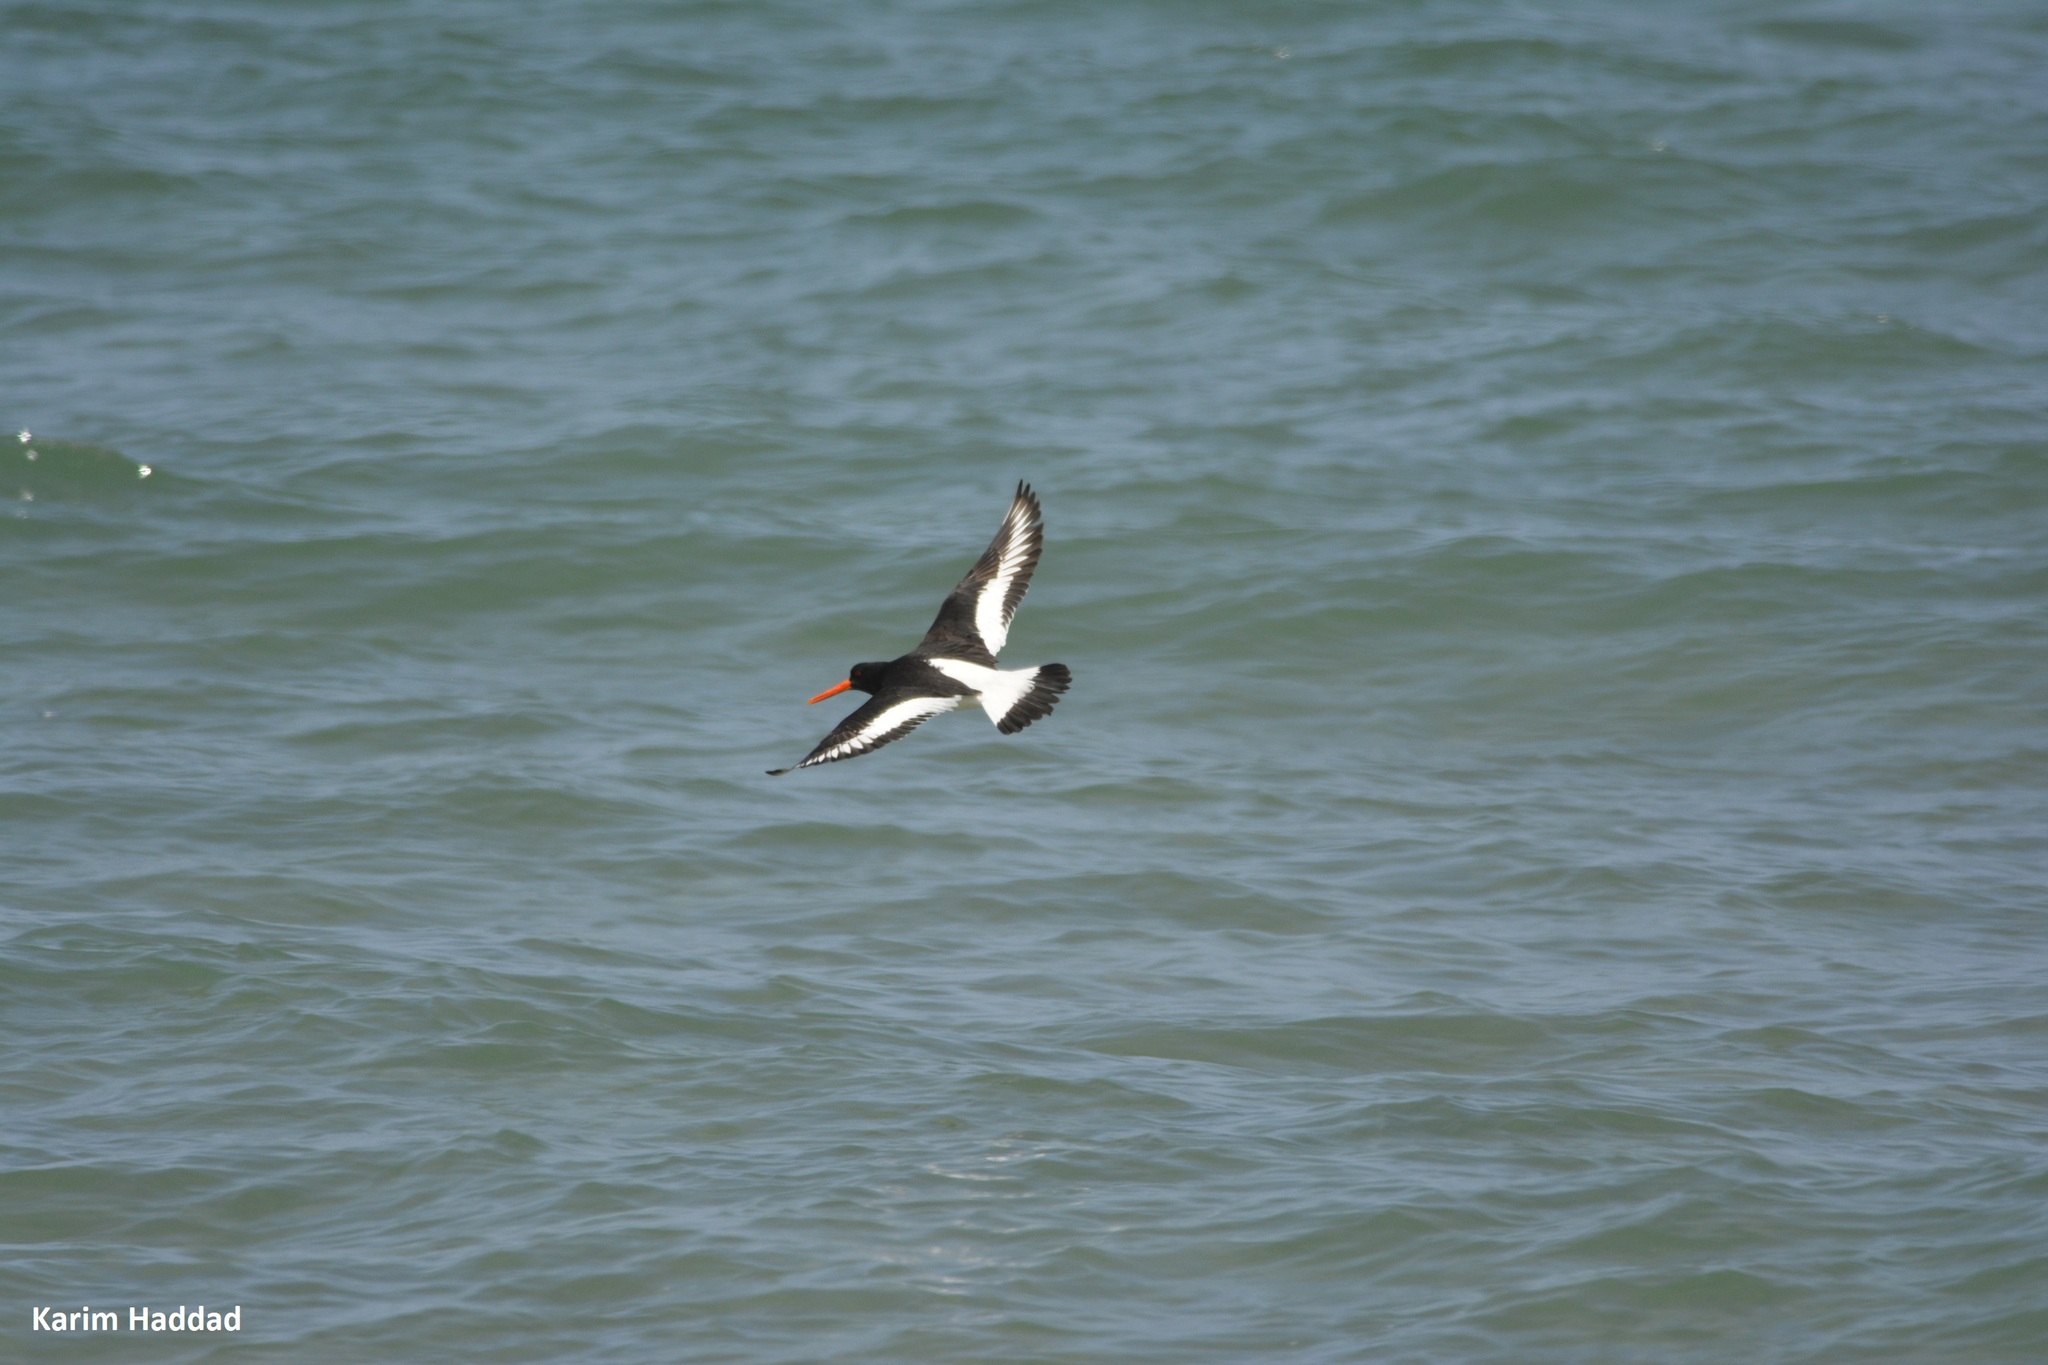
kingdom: Animalia
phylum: Chordata
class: Aves
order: Charadriiformes
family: Haematopodidae
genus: Haematopus
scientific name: Haematopus ostralegus
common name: Eurasian oystercatcher
